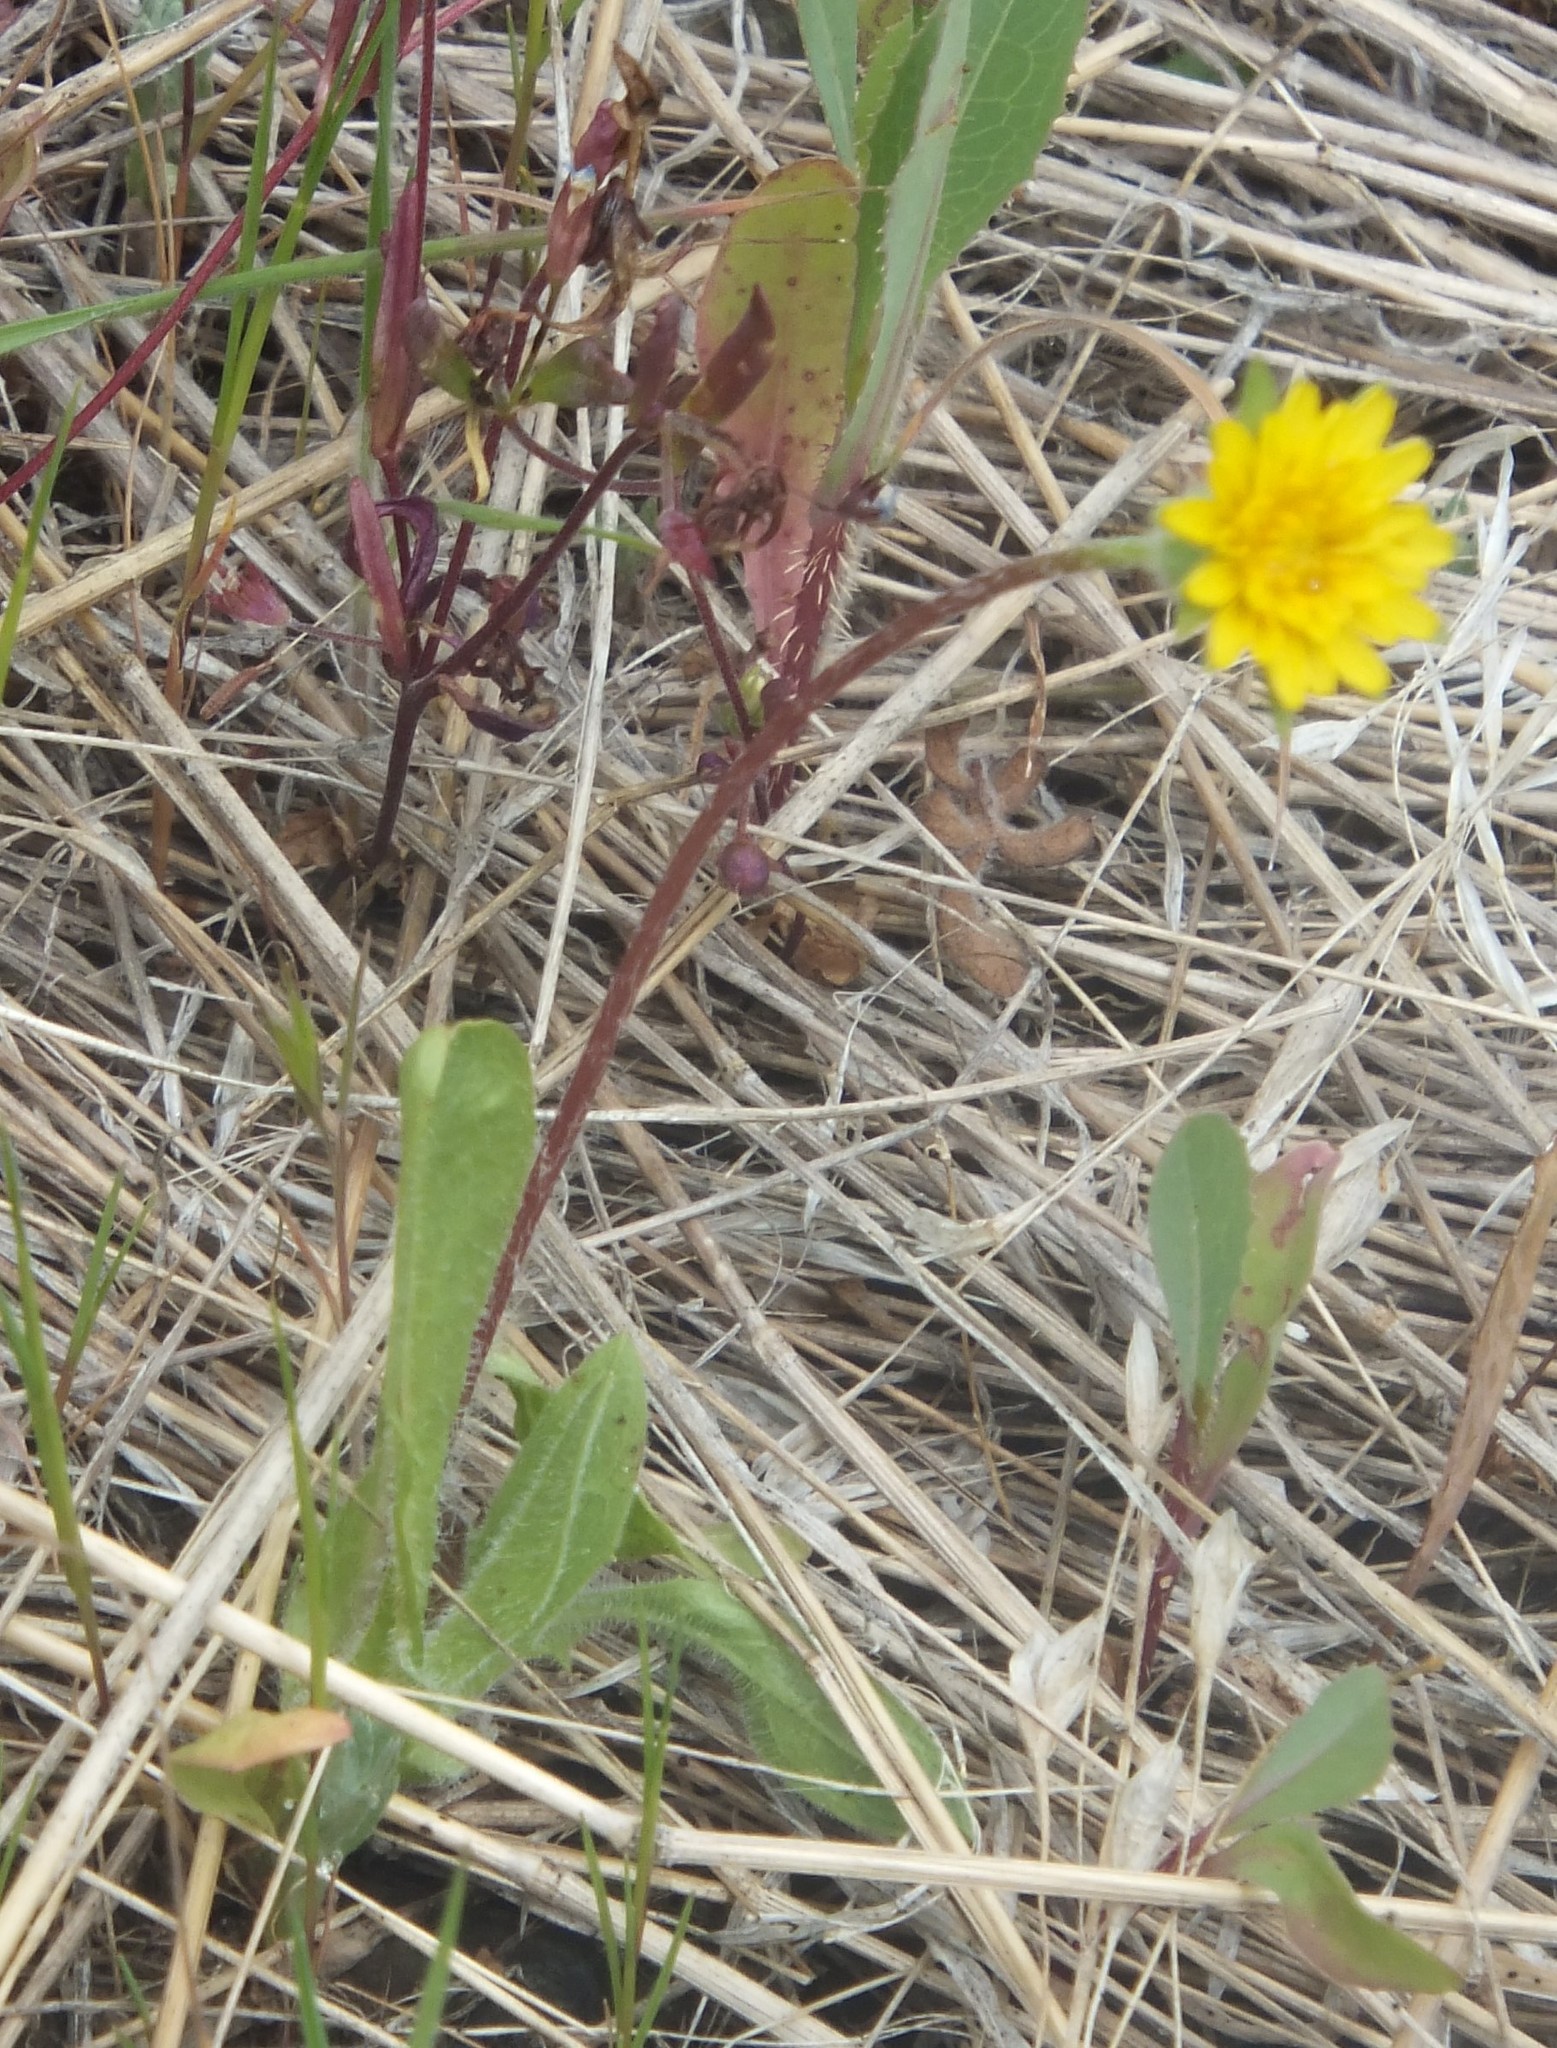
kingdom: Plantae
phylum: Tracheophyta
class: Magnoliopsida
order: Asterales
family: Asteraceae
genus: Agoseris
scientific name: Agoseris heterophylla
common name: Annual agoseris
